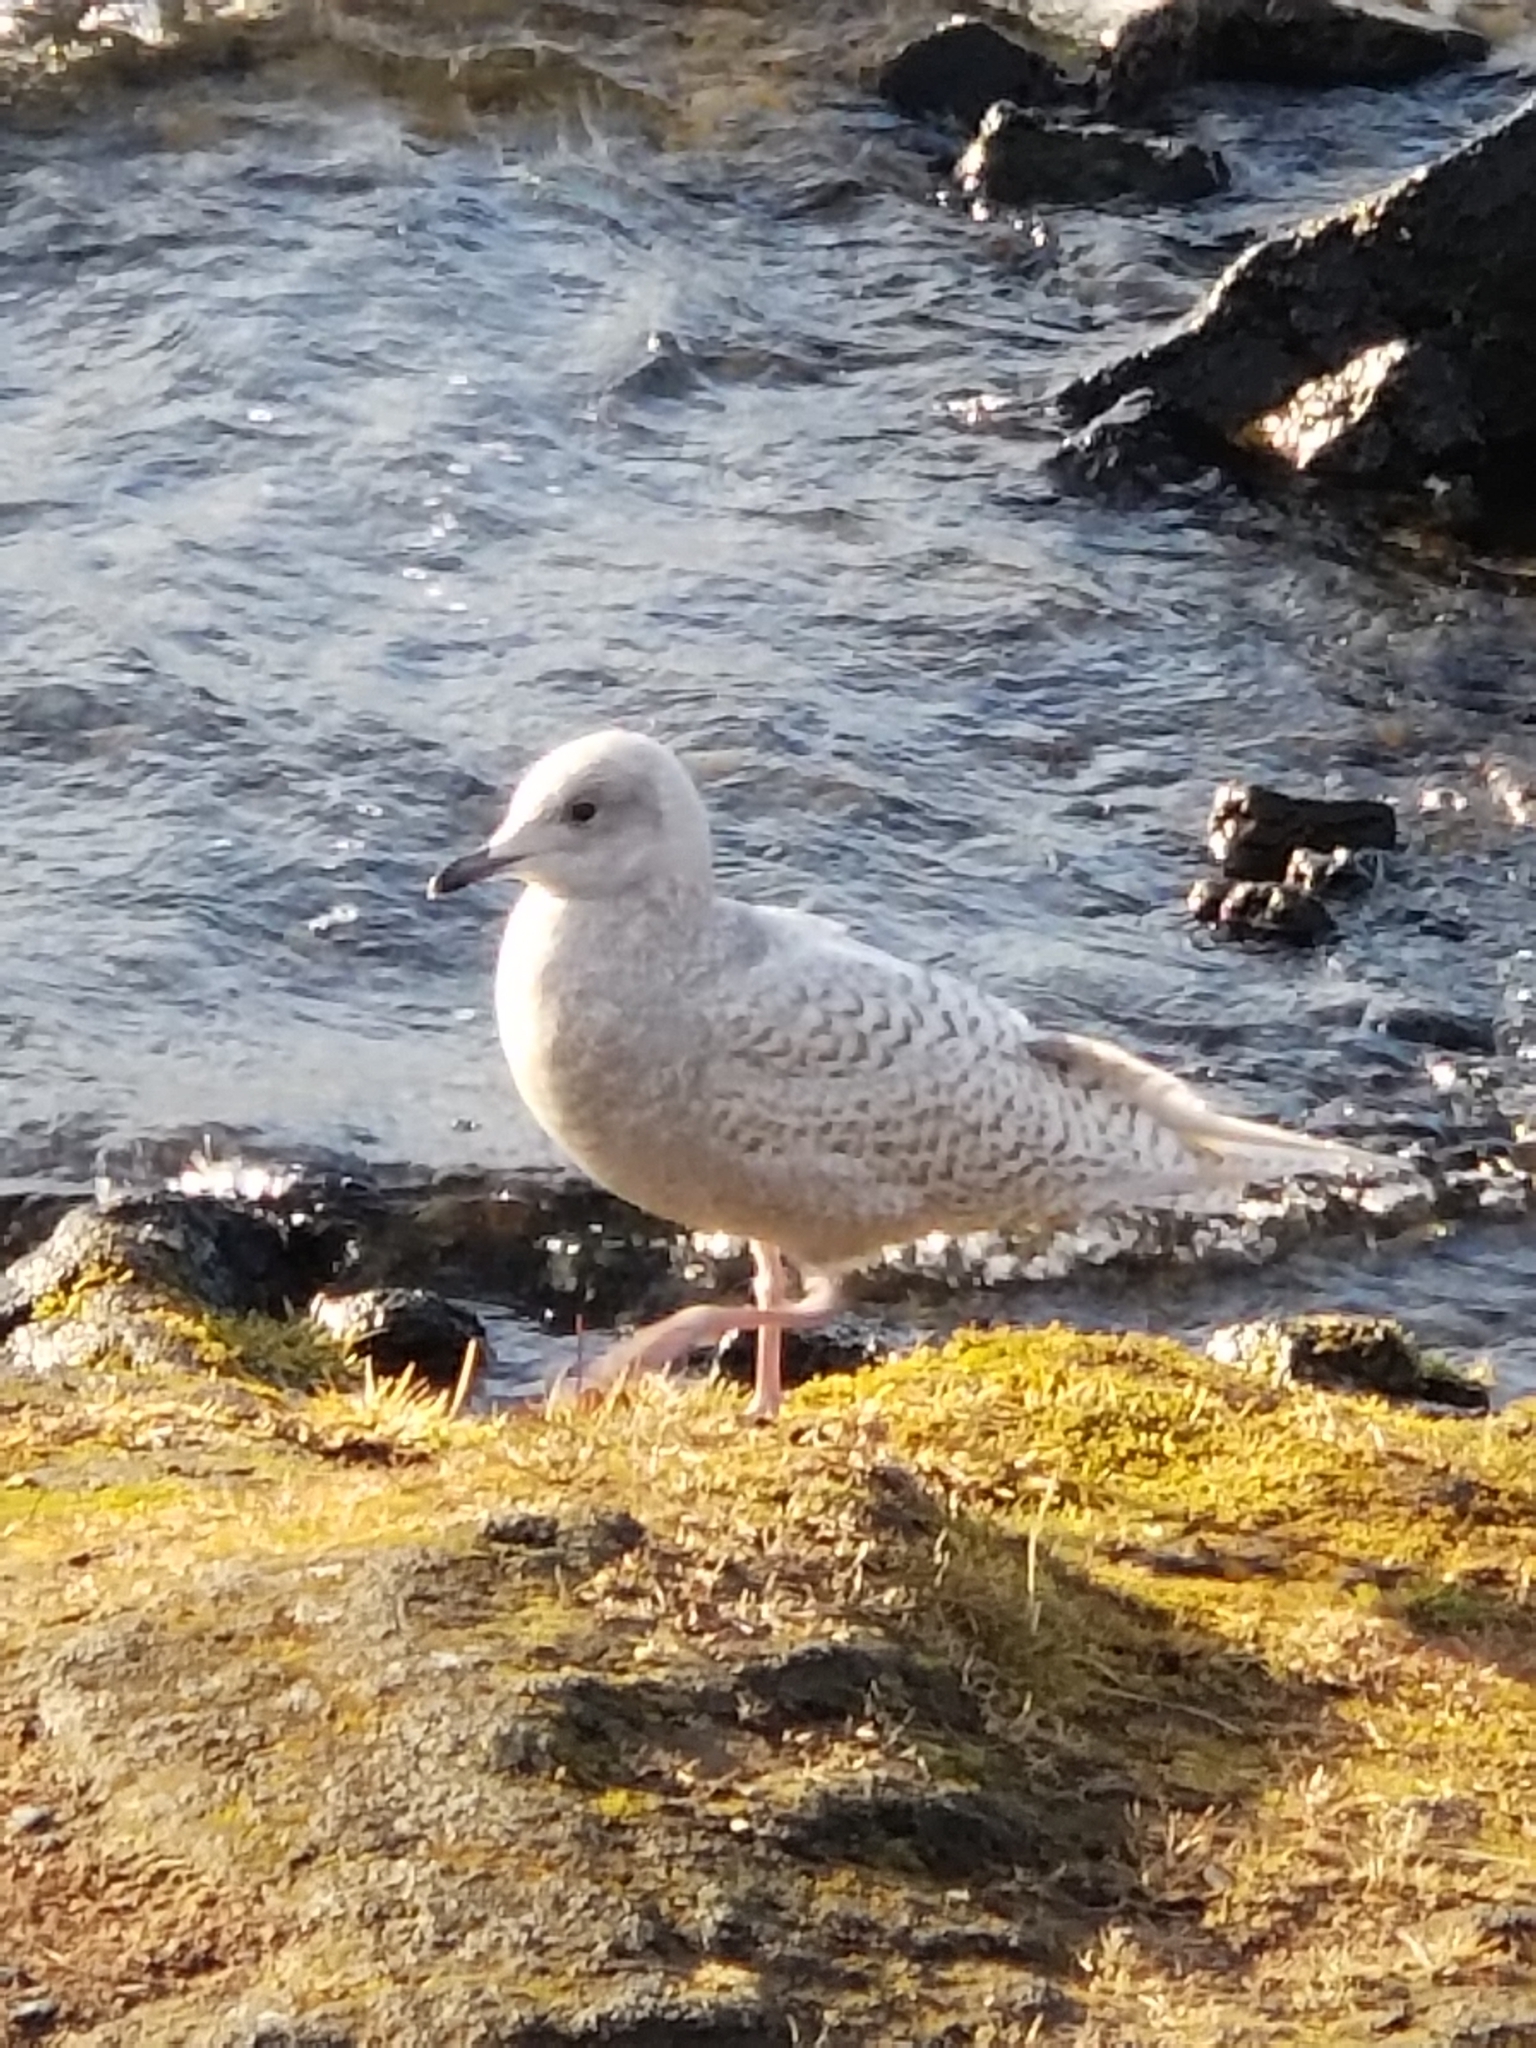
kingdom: Animalia
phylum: Chordata
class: Aves
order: Charadriiformes
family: Laridae
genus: Larus
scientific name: Larus glaucoides
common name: Iceland gull
